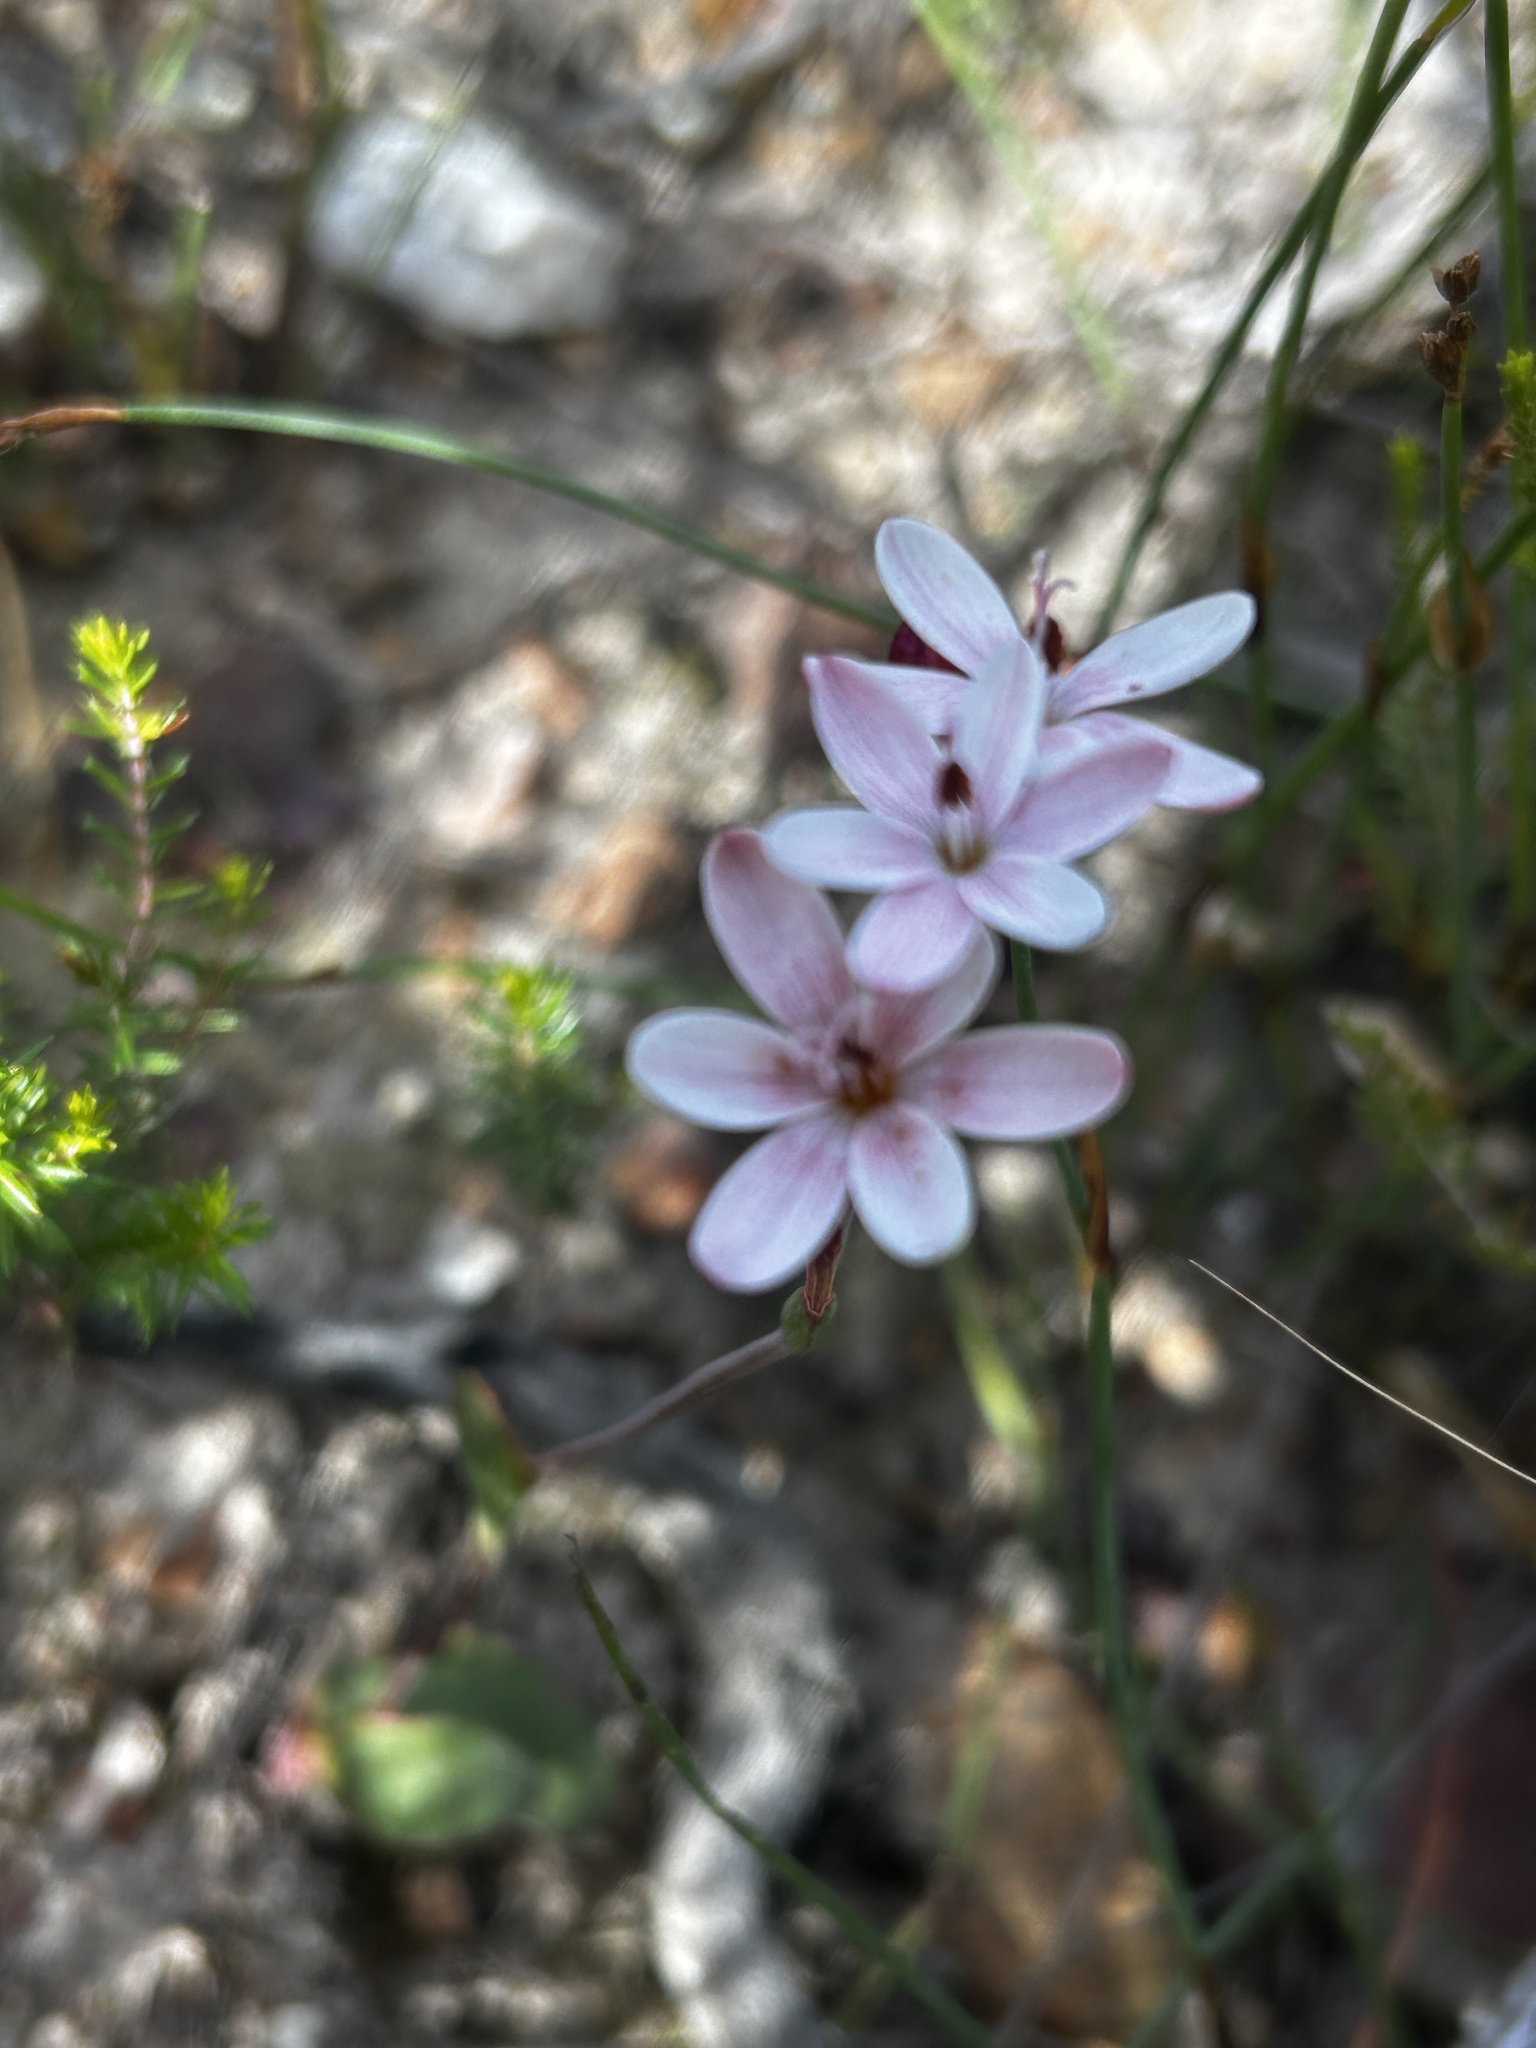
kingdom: Plantae
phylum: Tracheophyta
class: Liliopsida
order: Asparagales
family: Iridaceae
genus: Geissorhiza
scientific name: Geissorhiza ovata
